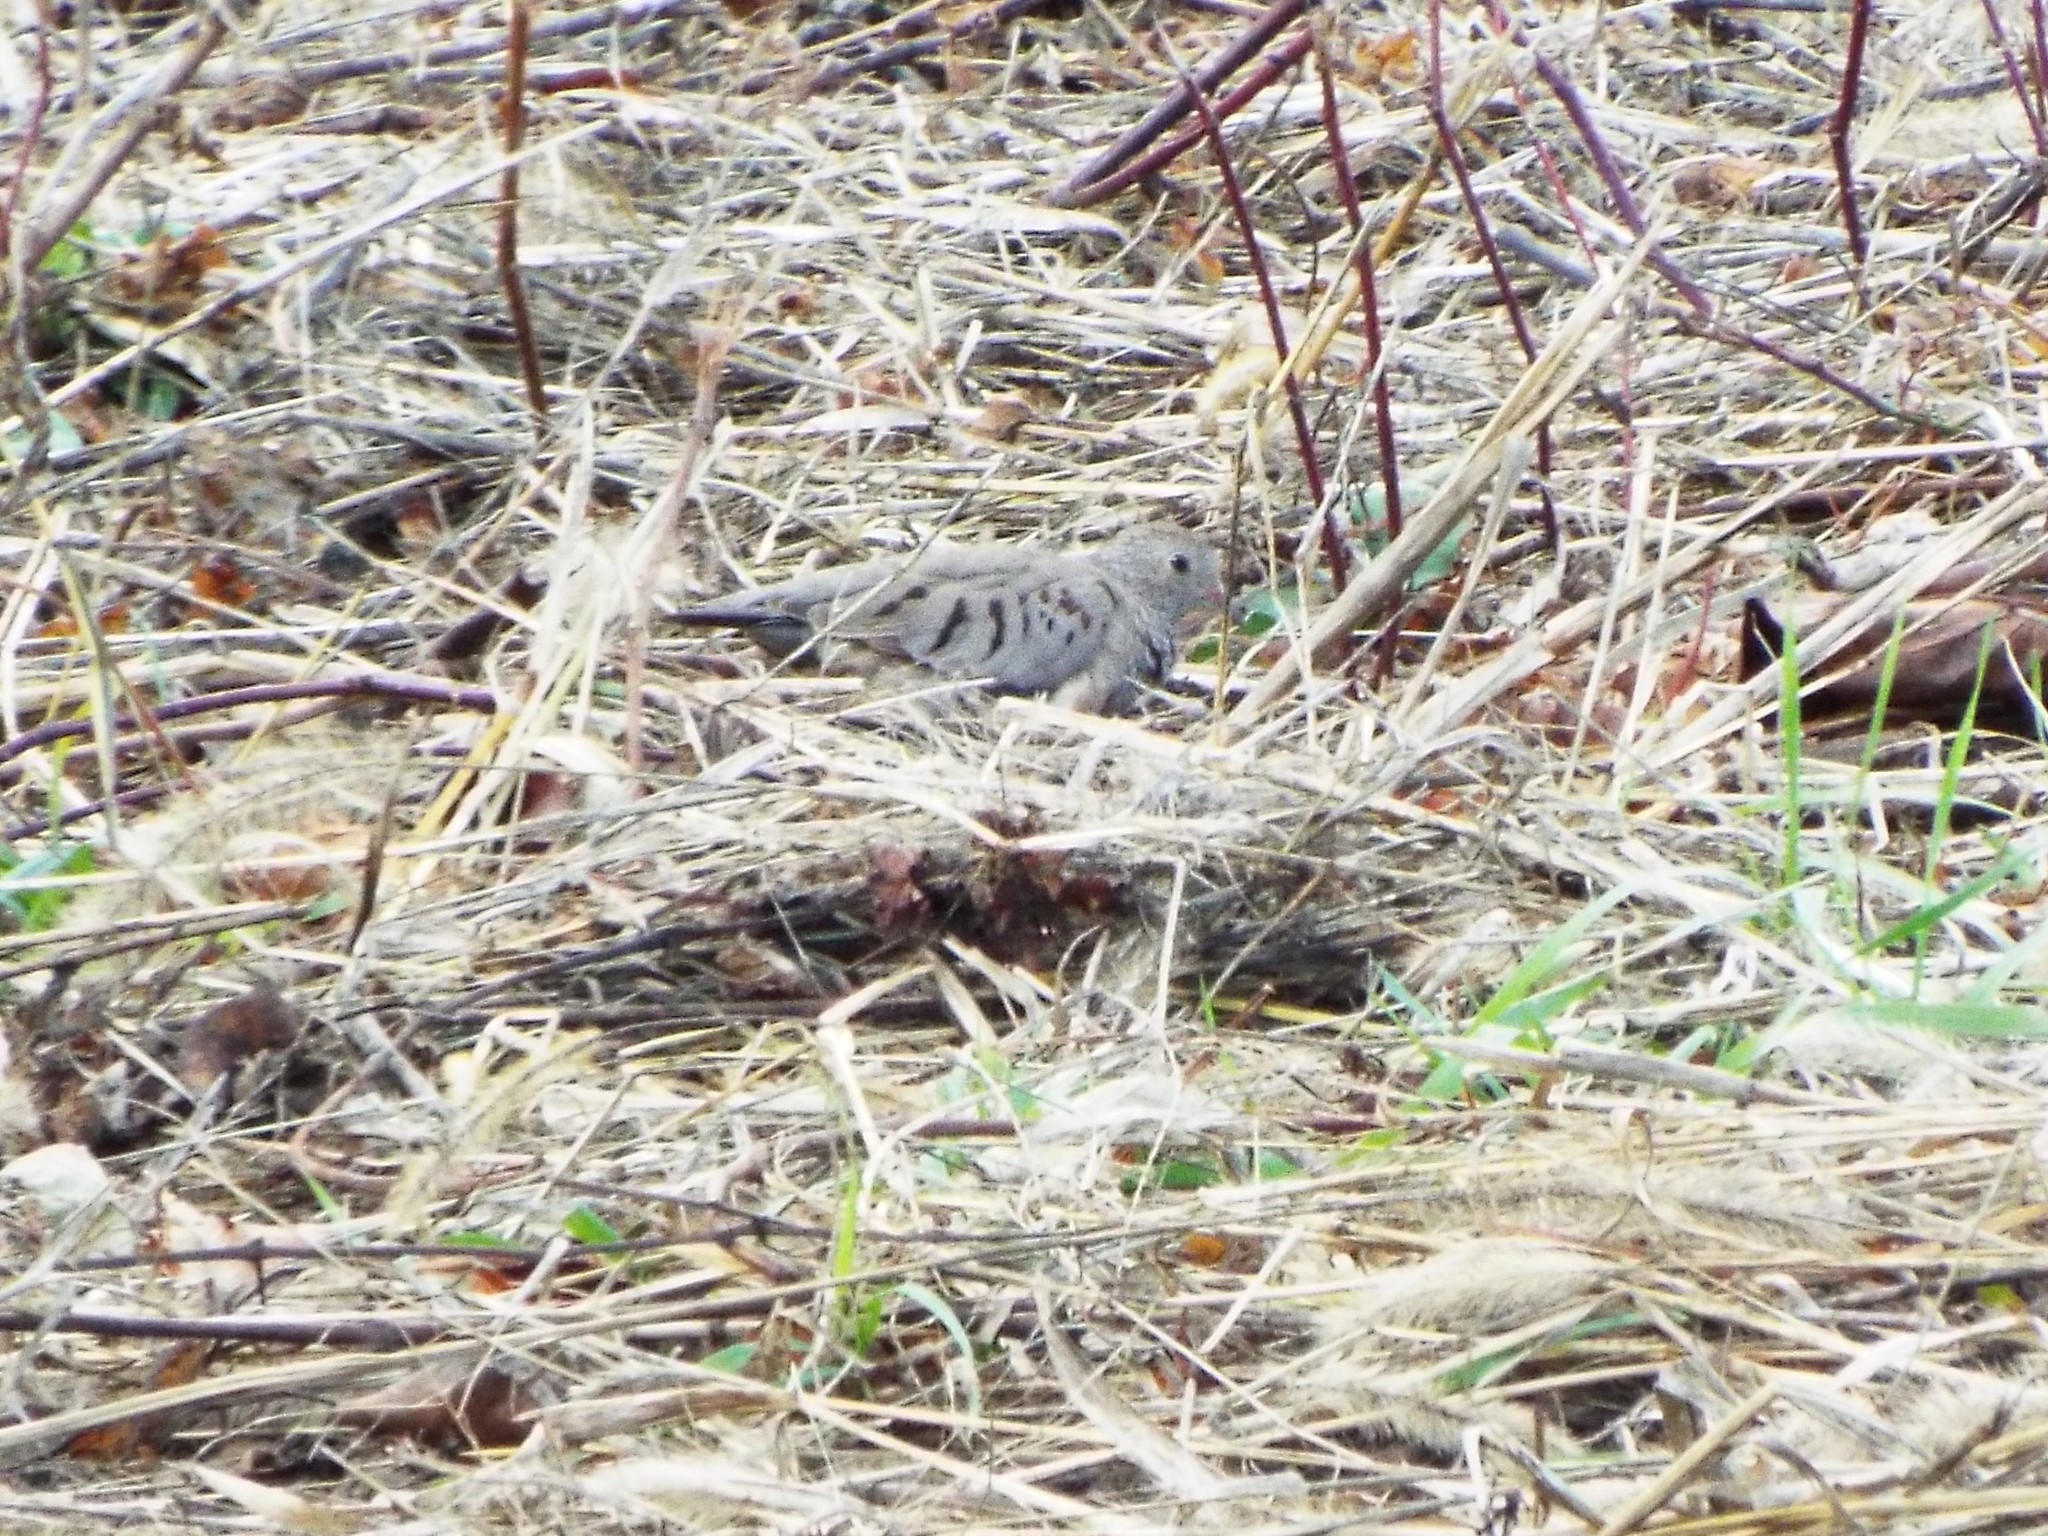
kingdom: Animalia
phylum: Chordata
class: Aves
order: Columbiformes
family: Columbidae
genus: Columbina
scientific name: Columbina passerina
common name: Common ground-dove
